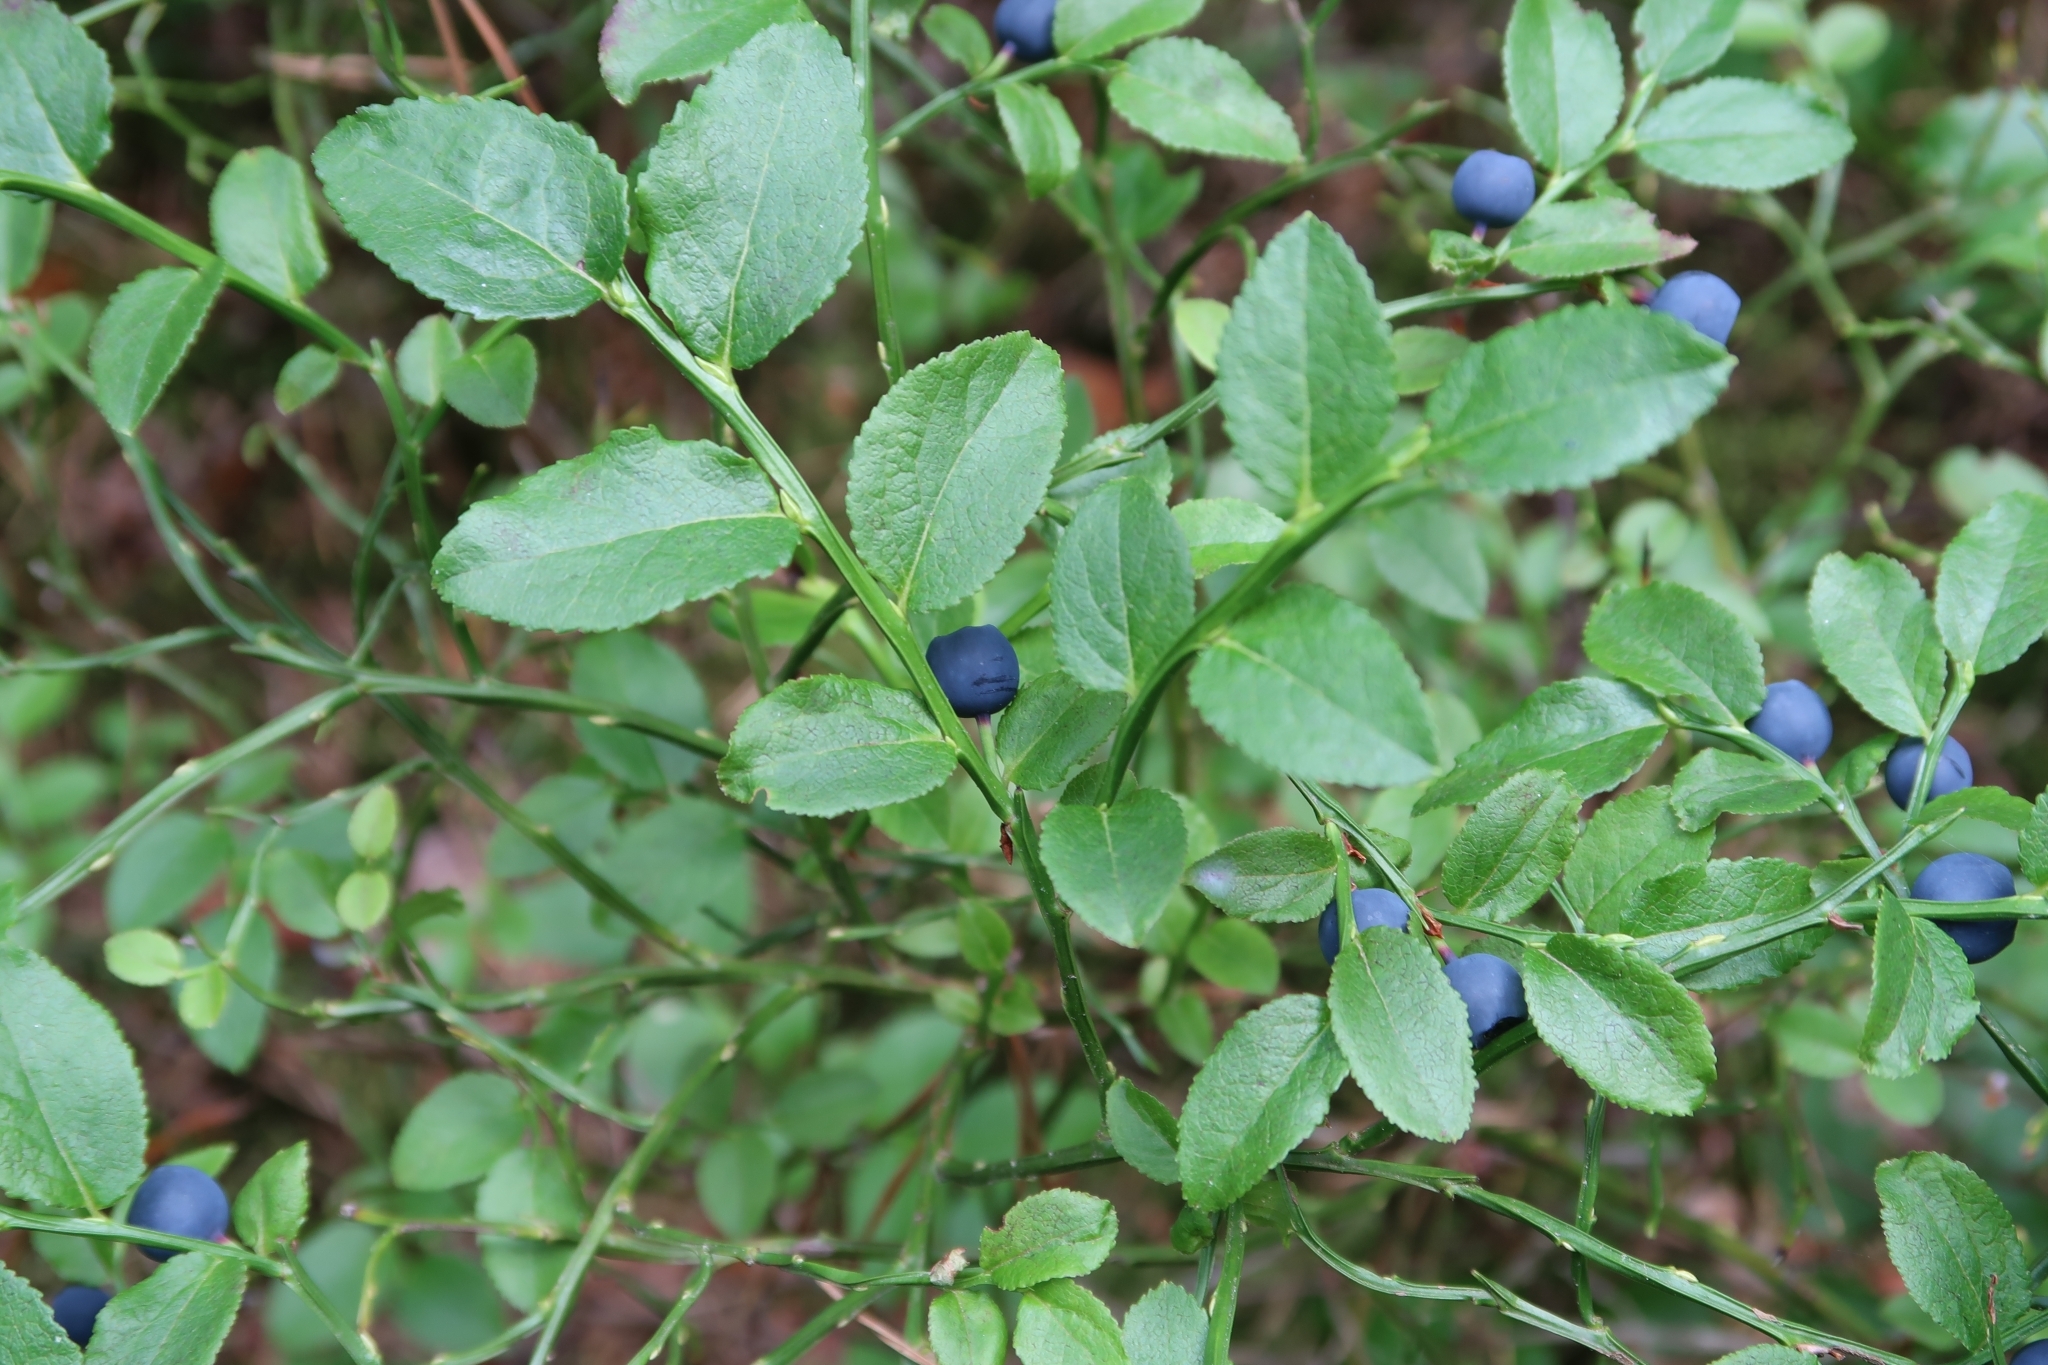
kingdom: Plantae
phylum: Tracheophyta
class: Magnoliopsida
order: Ericales
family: Ericaceae
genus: Vaccinium
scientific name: Vaccinium myrtillus
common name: Bilberry
